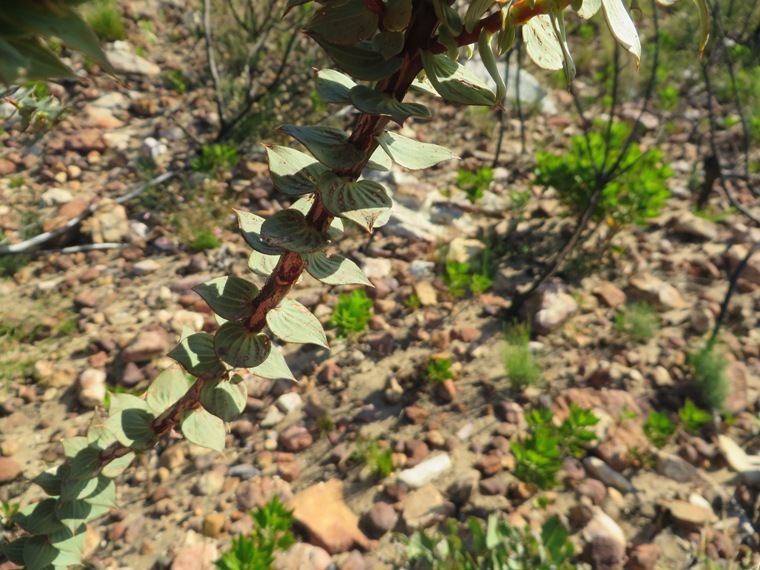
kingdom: Plantae
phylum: Tracheophyta
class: Magnoliopsida
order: Fabales
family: Fabaceae
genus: Aspalathus
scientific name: Aspalathus crenata
